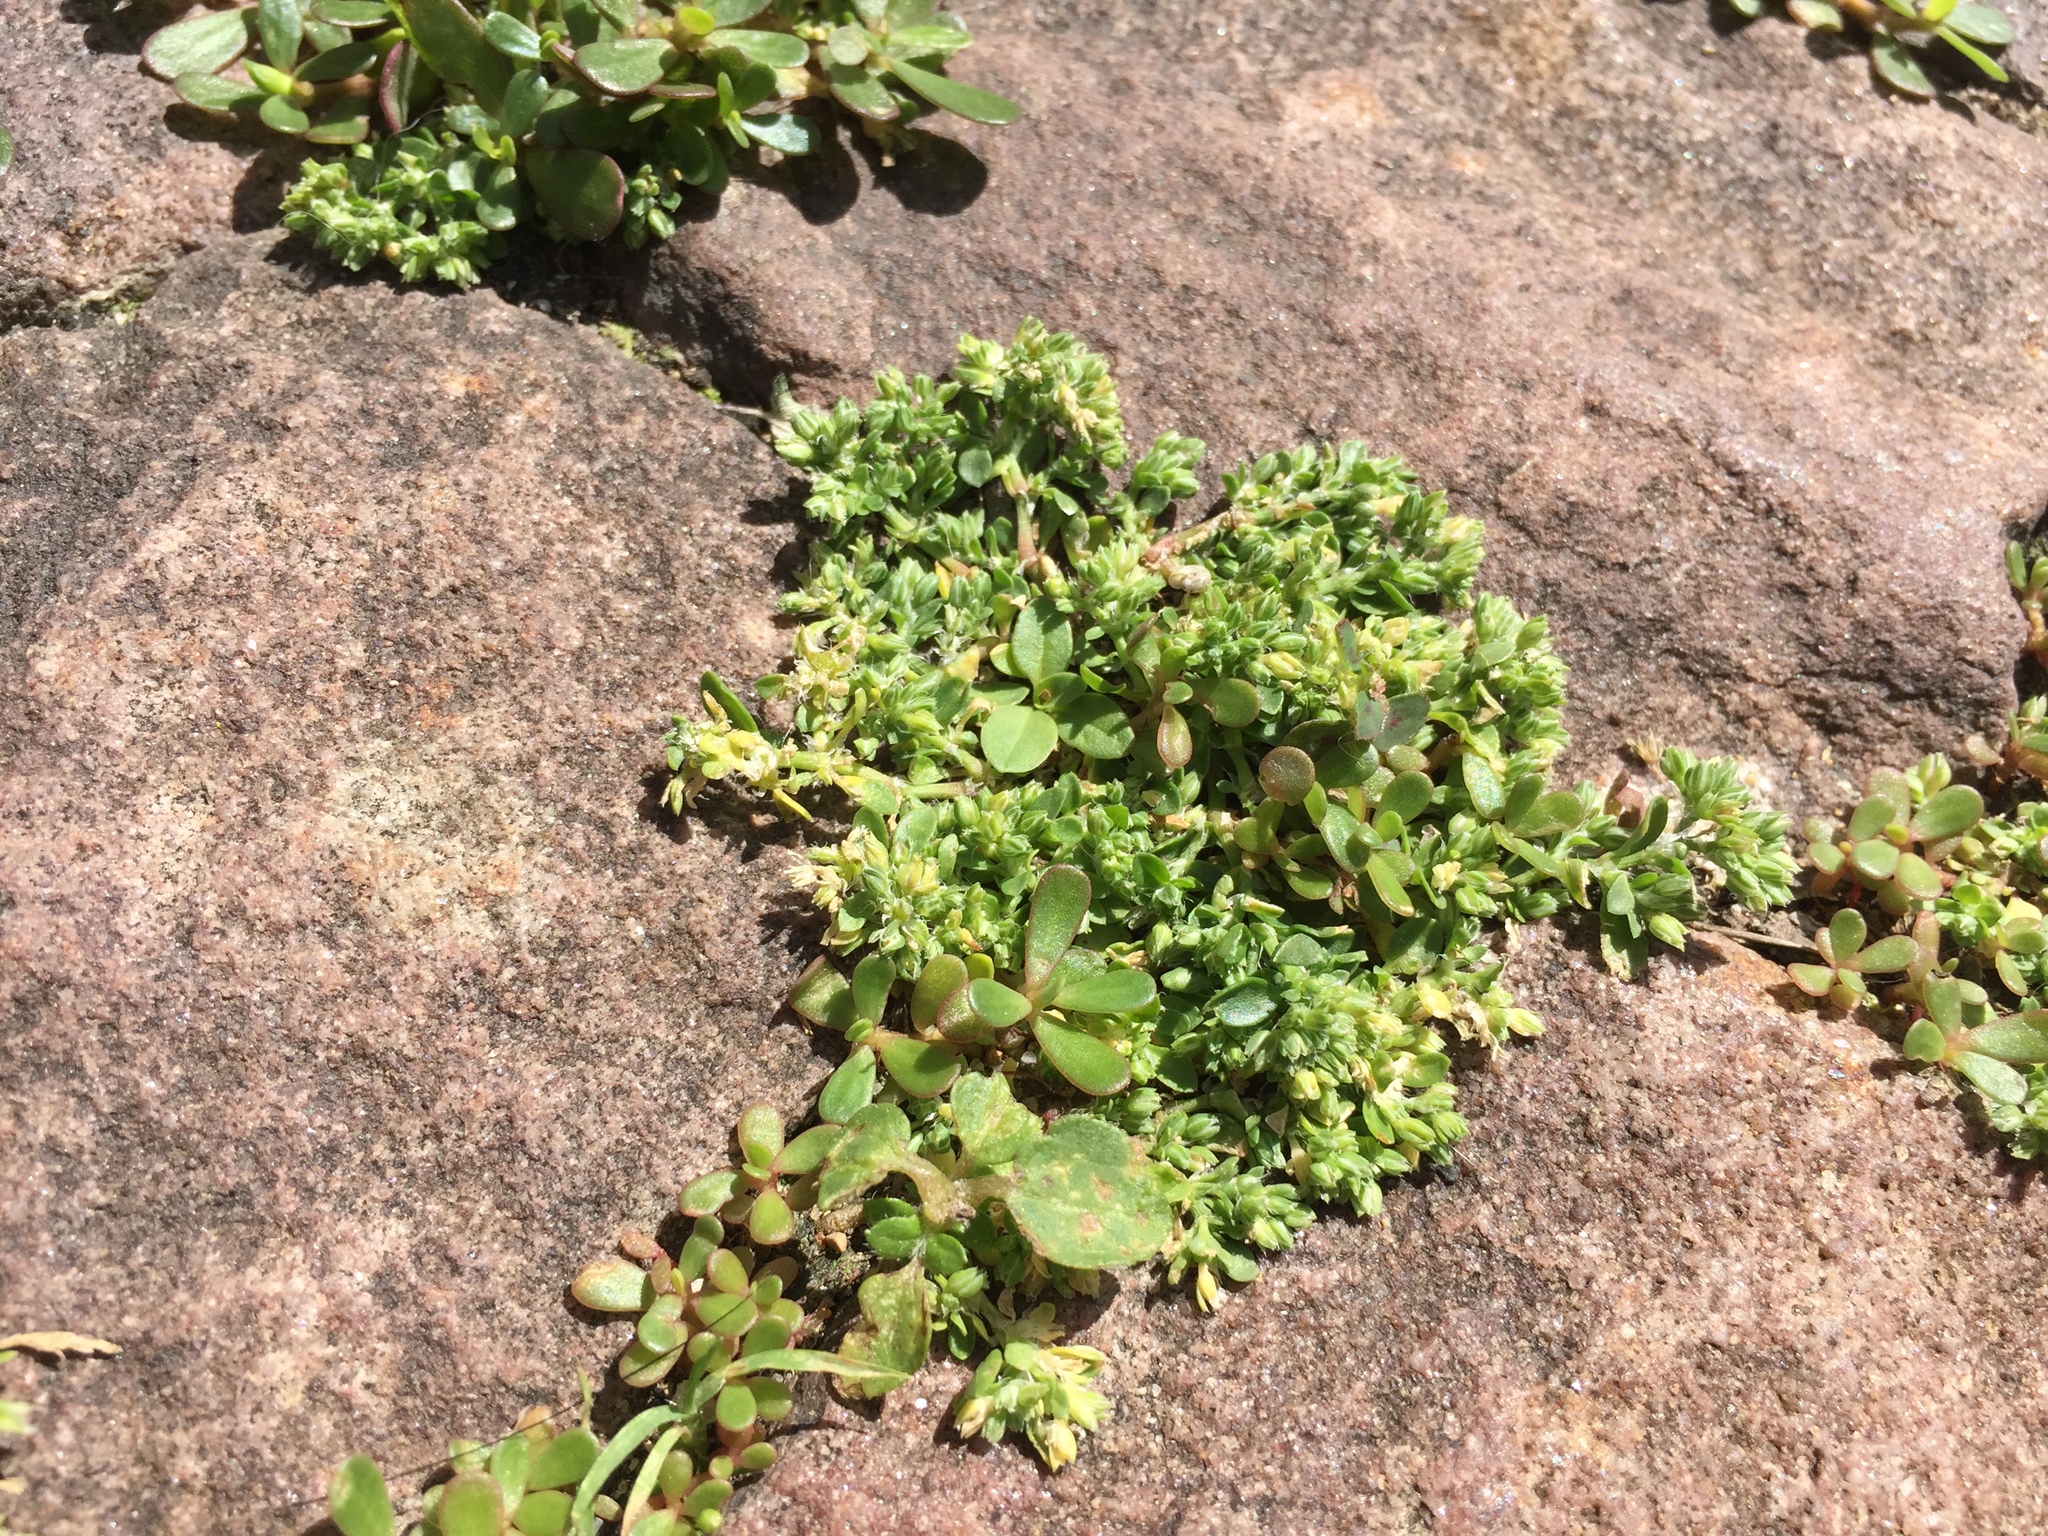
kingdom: Plantae
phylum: Tracheophyta
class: Magnoliopsida
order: Caryophyllales
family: Caryophyllaceae
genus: Polycarpon
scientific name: Polycarpon tetraphyllum
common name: Four-leaved all-seed
